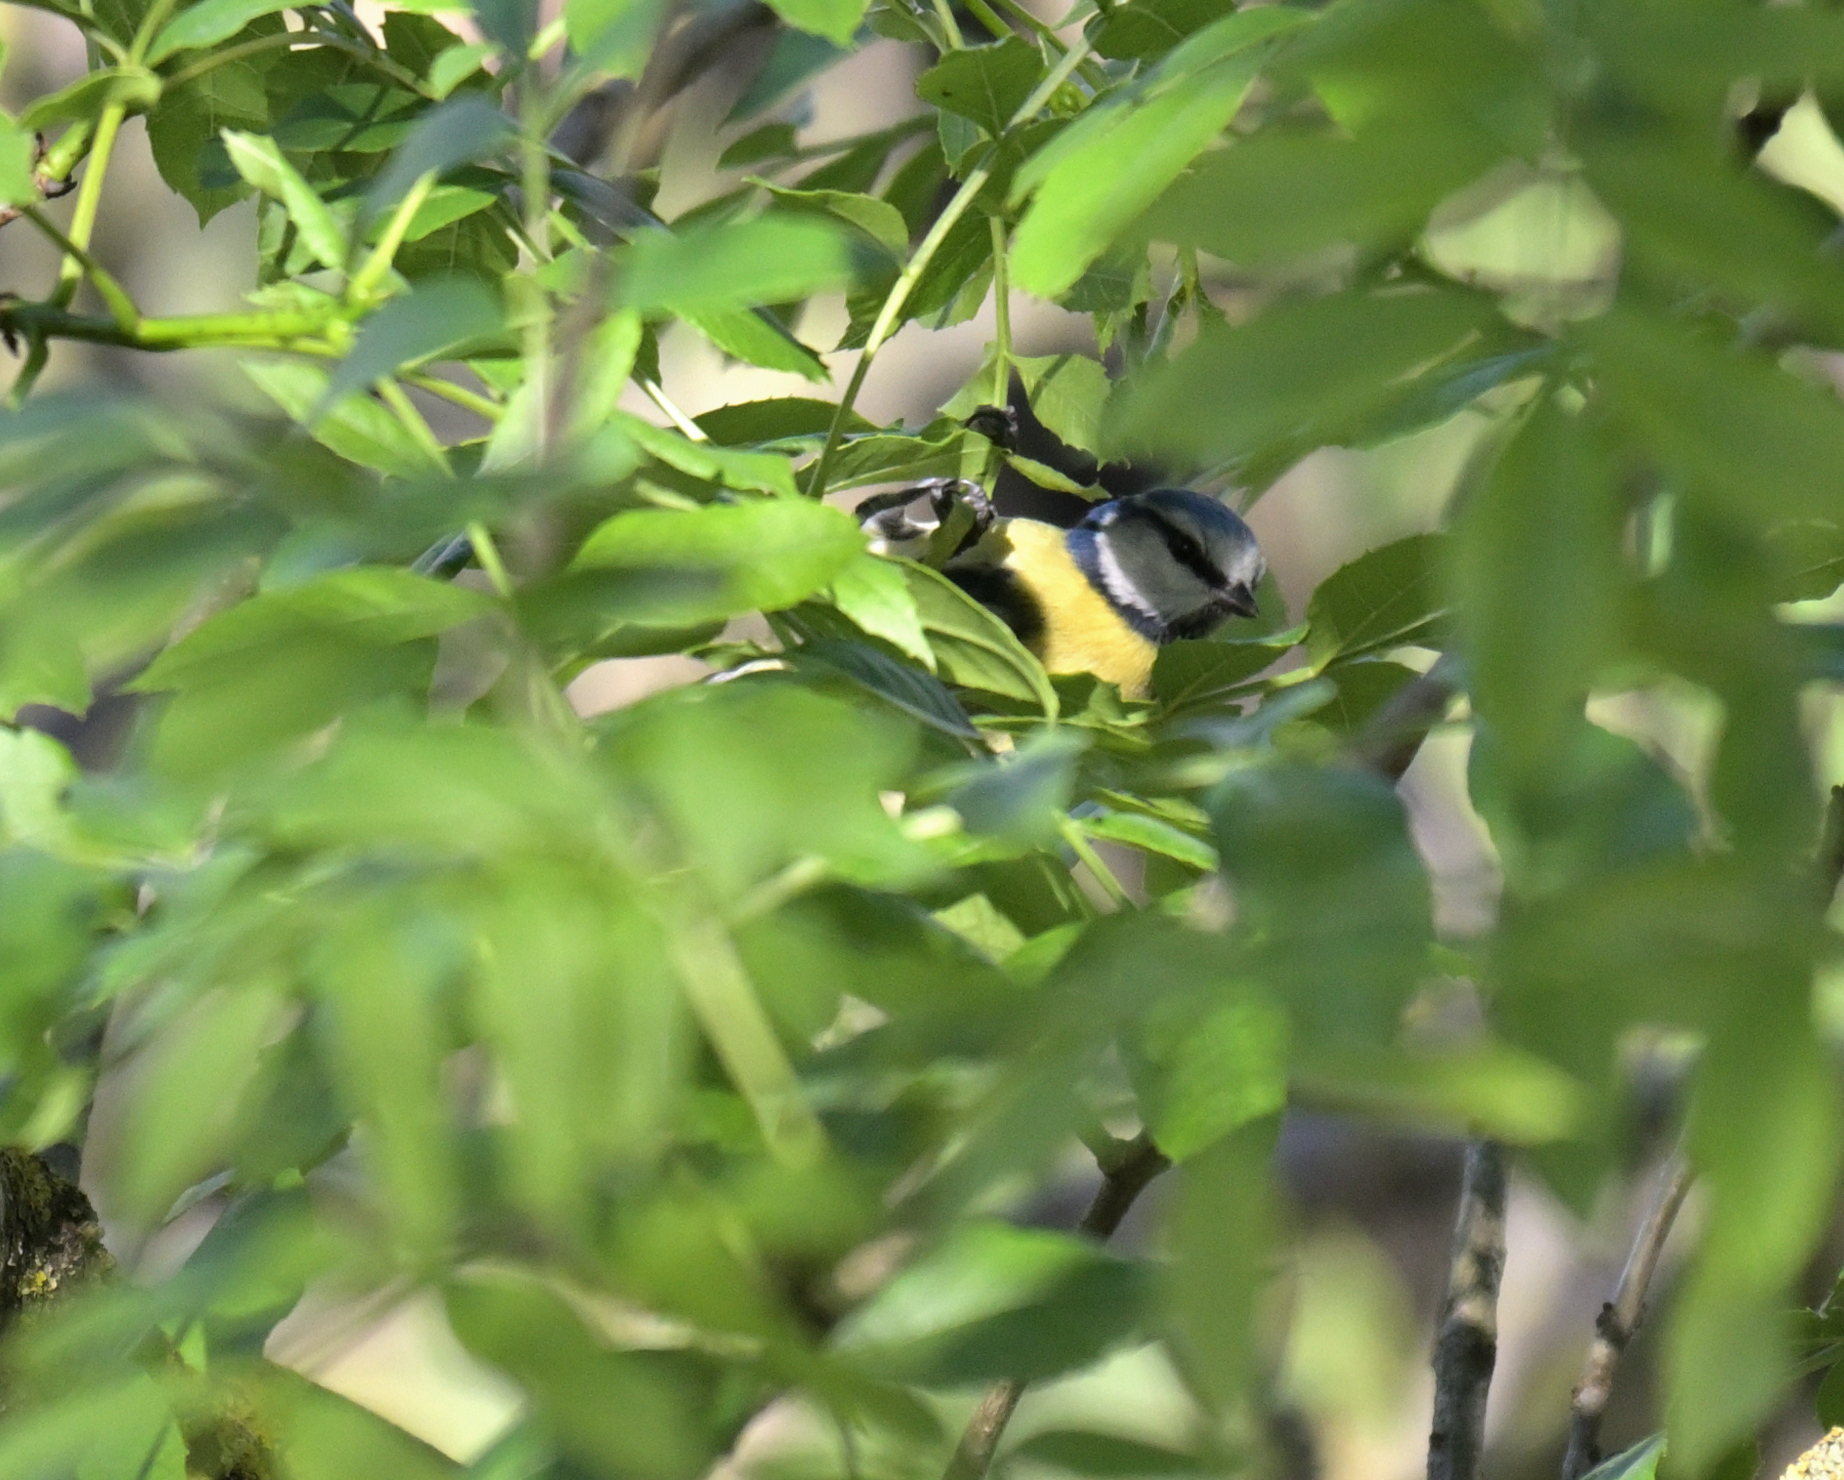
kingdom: Animalia
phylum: Chordata
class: Aves
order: Passeriformes
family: Paridae
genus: Cyanistes
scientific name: Cyanistes caeruleus
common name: Eurasian blue tit
